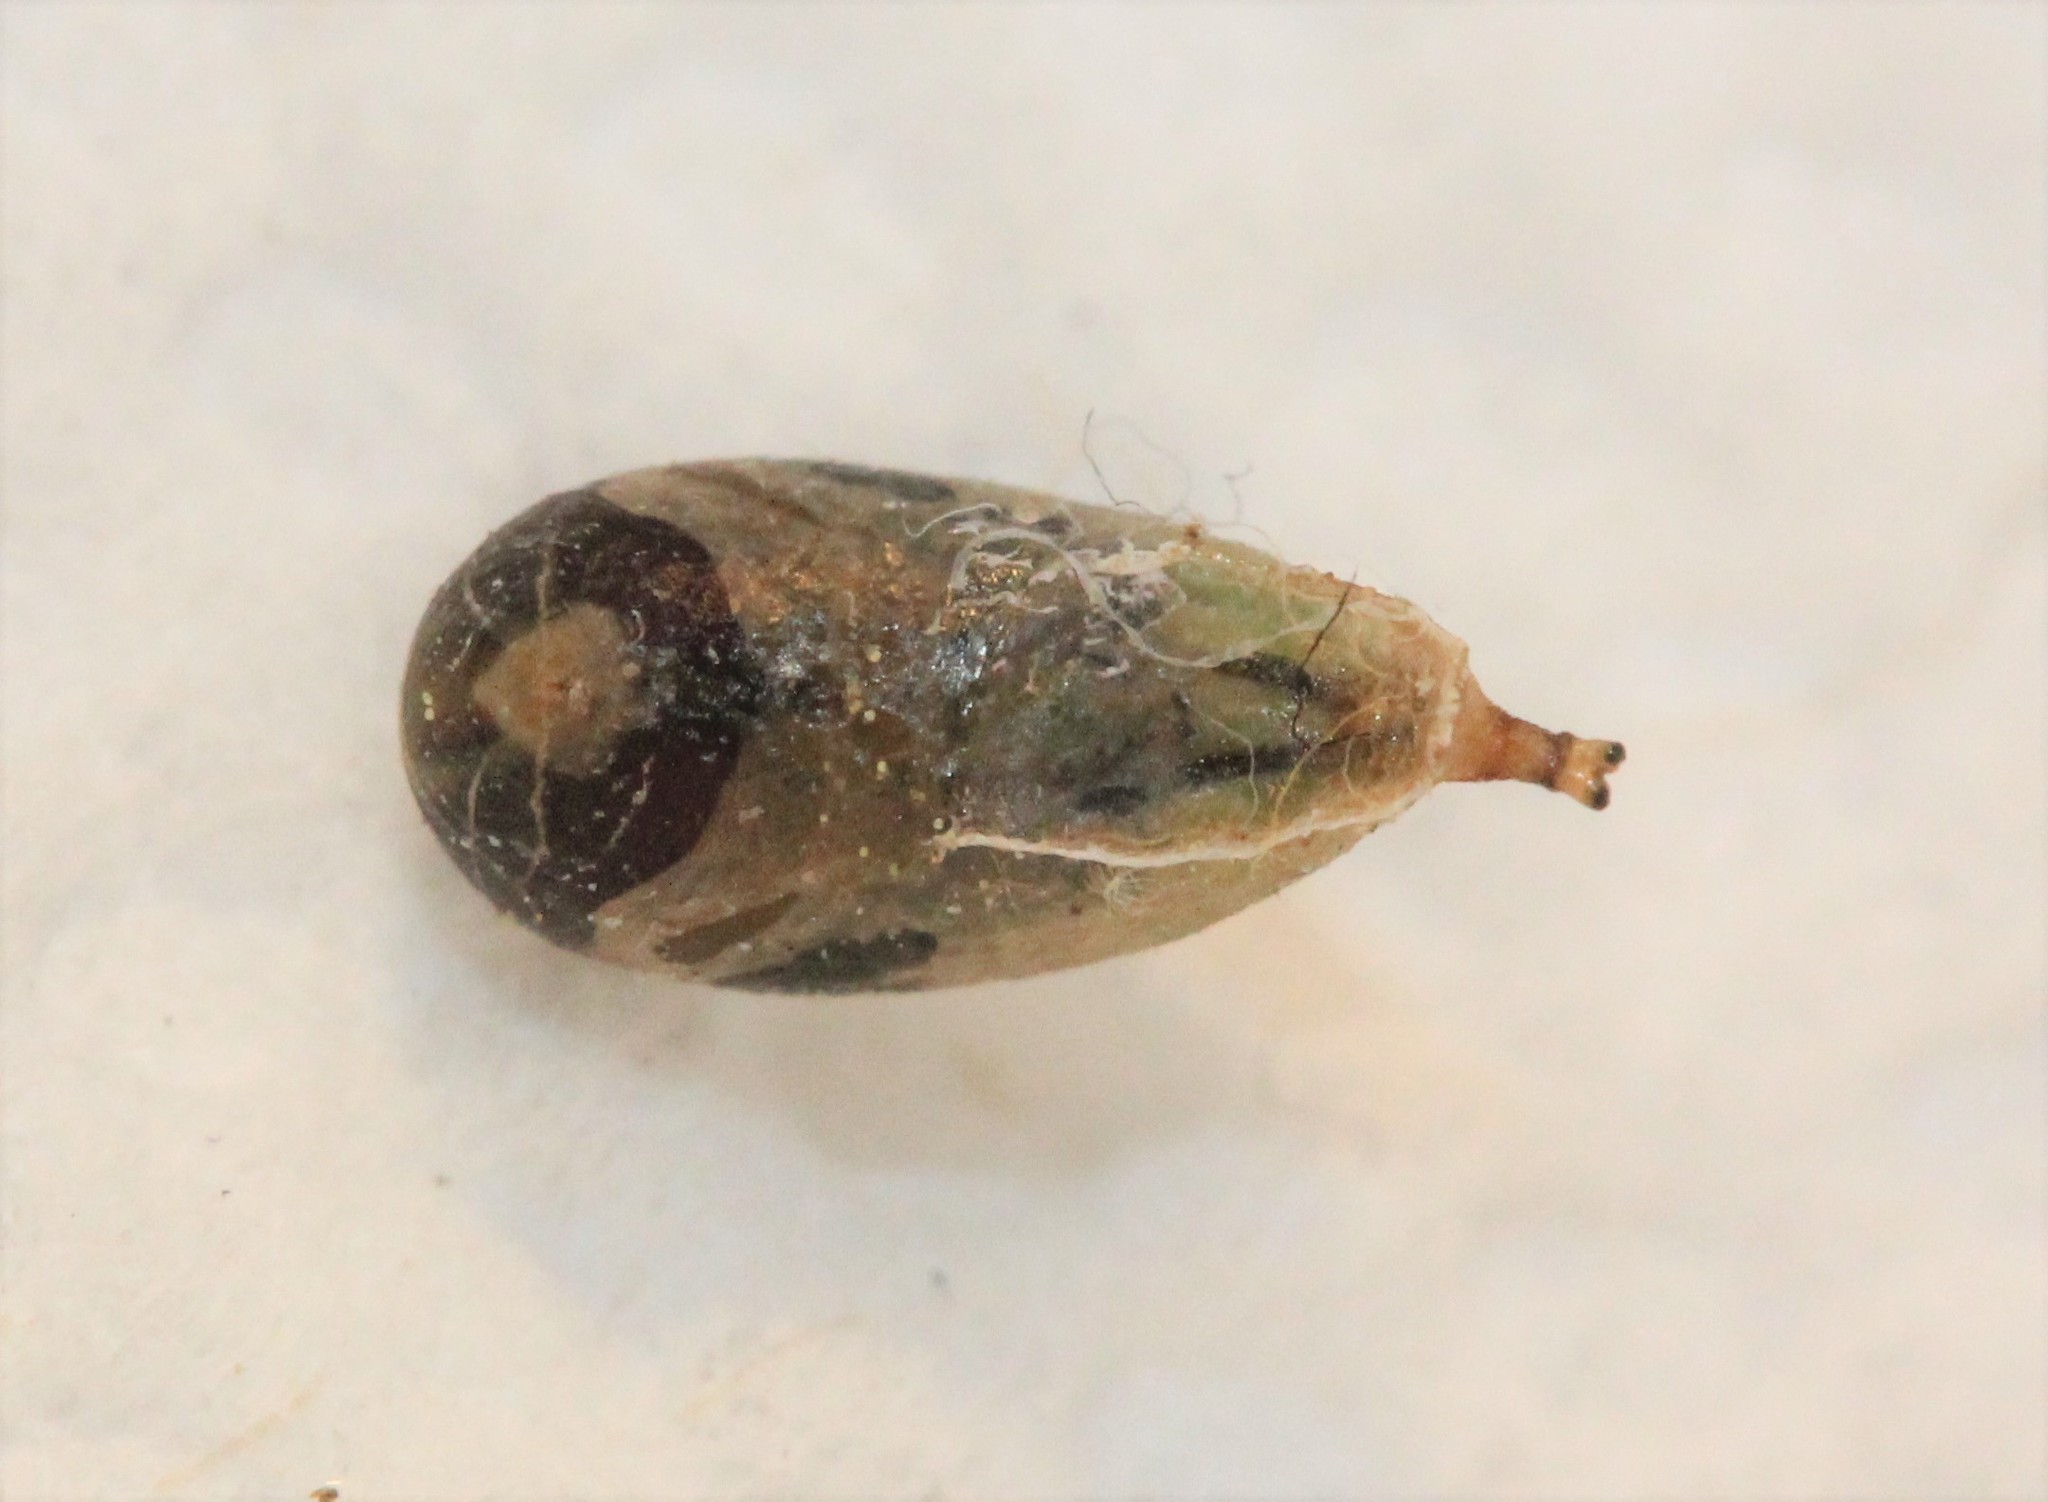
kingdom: Animalia
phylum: Arthropoda
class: Insecta
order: Diptera
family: Syrphidae
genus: Allograpta
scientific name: Allograpta obliqua
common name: Common oblique syrphid
